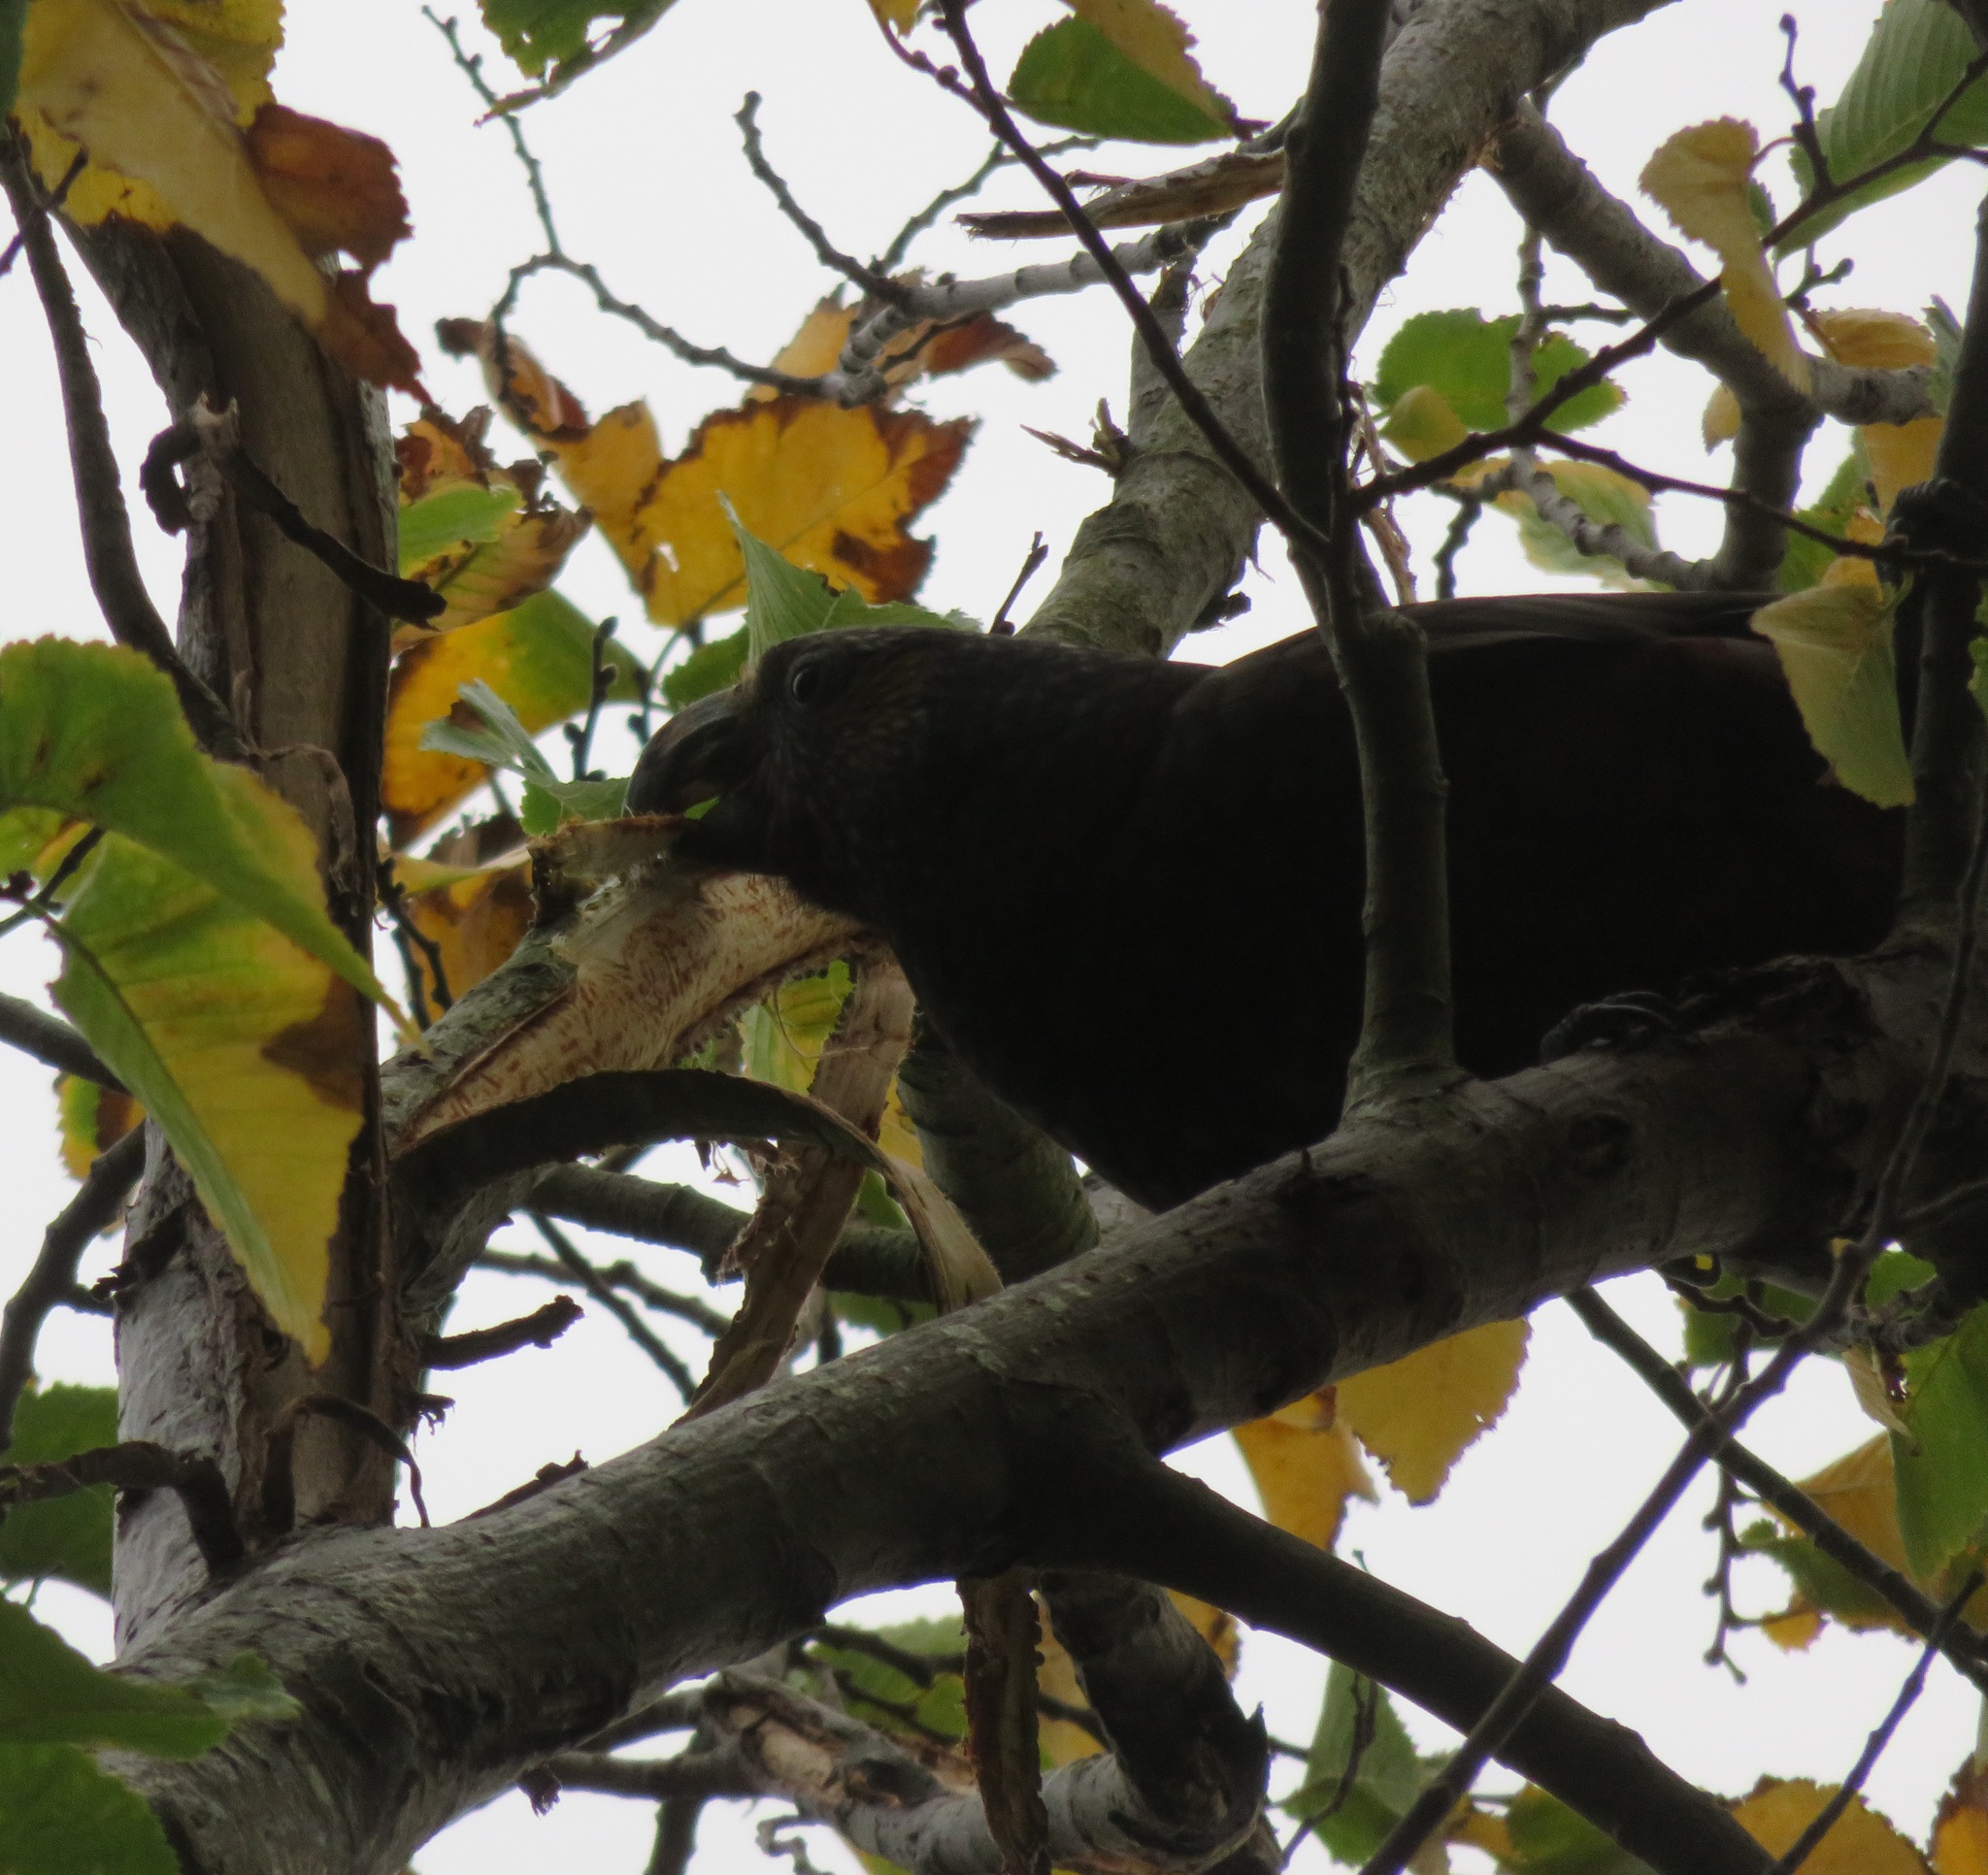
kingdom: Animalia
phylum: Chordata
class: Aves
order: Psittaciformes
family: Psittacidae
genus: Nestor
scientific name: Nestor meridionalis
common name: New zealand kaka
